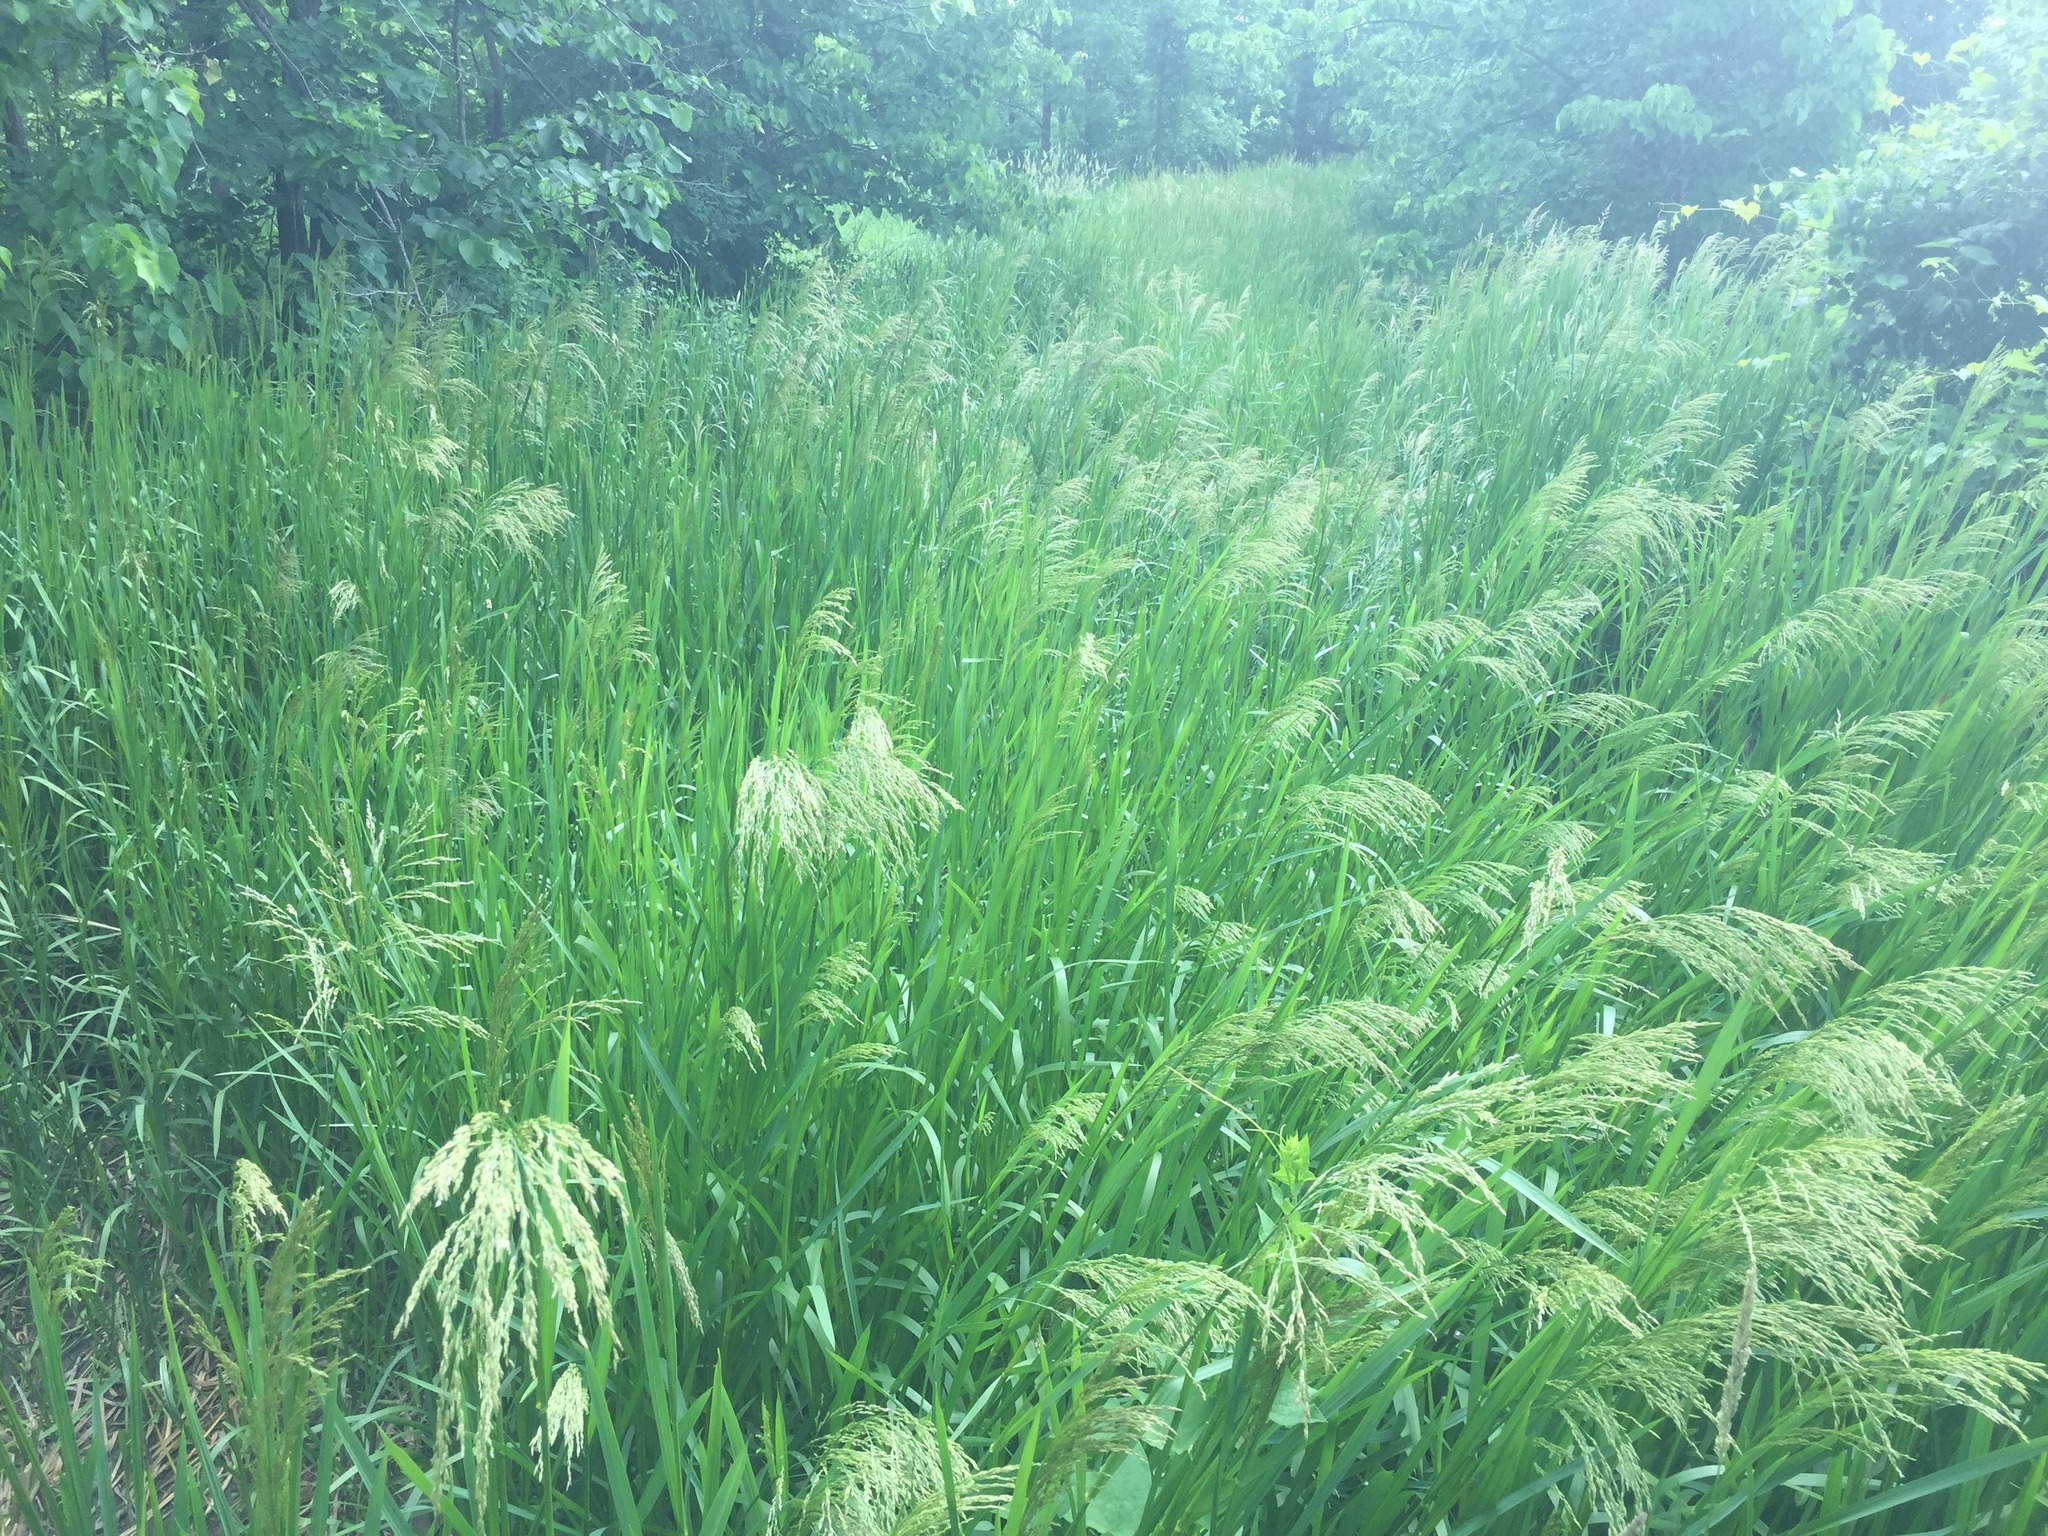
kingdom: Plantae
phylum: Tracheophyta
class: Liliopsida
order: Poales
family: Poaceae
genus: Glyceria
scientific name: Glyceria maxima
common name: Reed mannagrass
